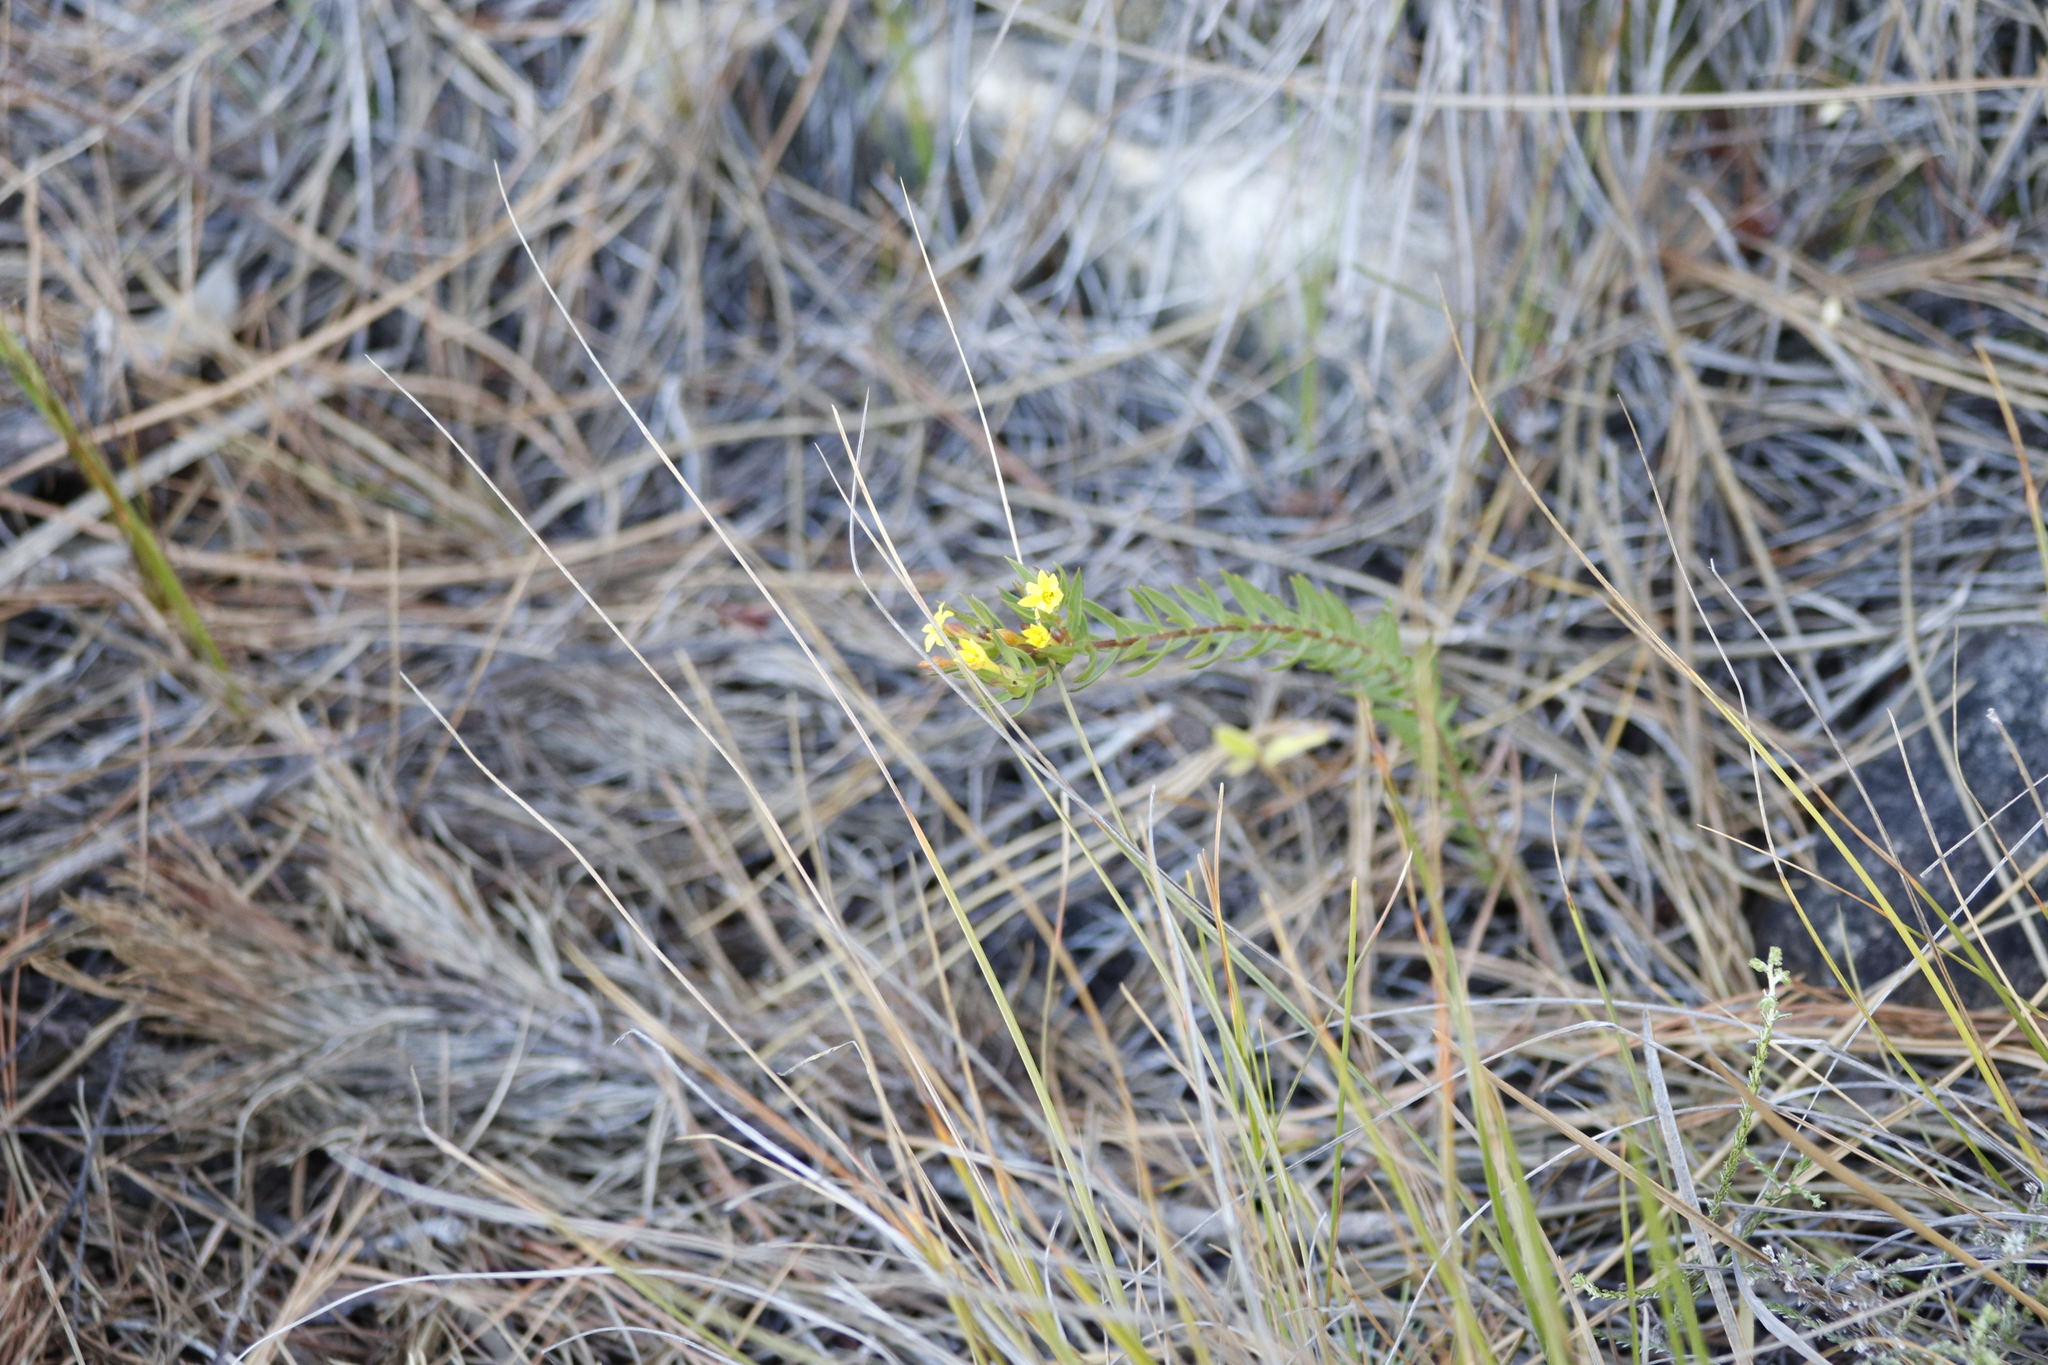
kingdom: Plantae
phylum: Tracheophyta
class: Magnoliopsida
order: Malvales
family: Thymelaeaceae
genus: Gnidia
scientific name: Gnidia juniperifolia
